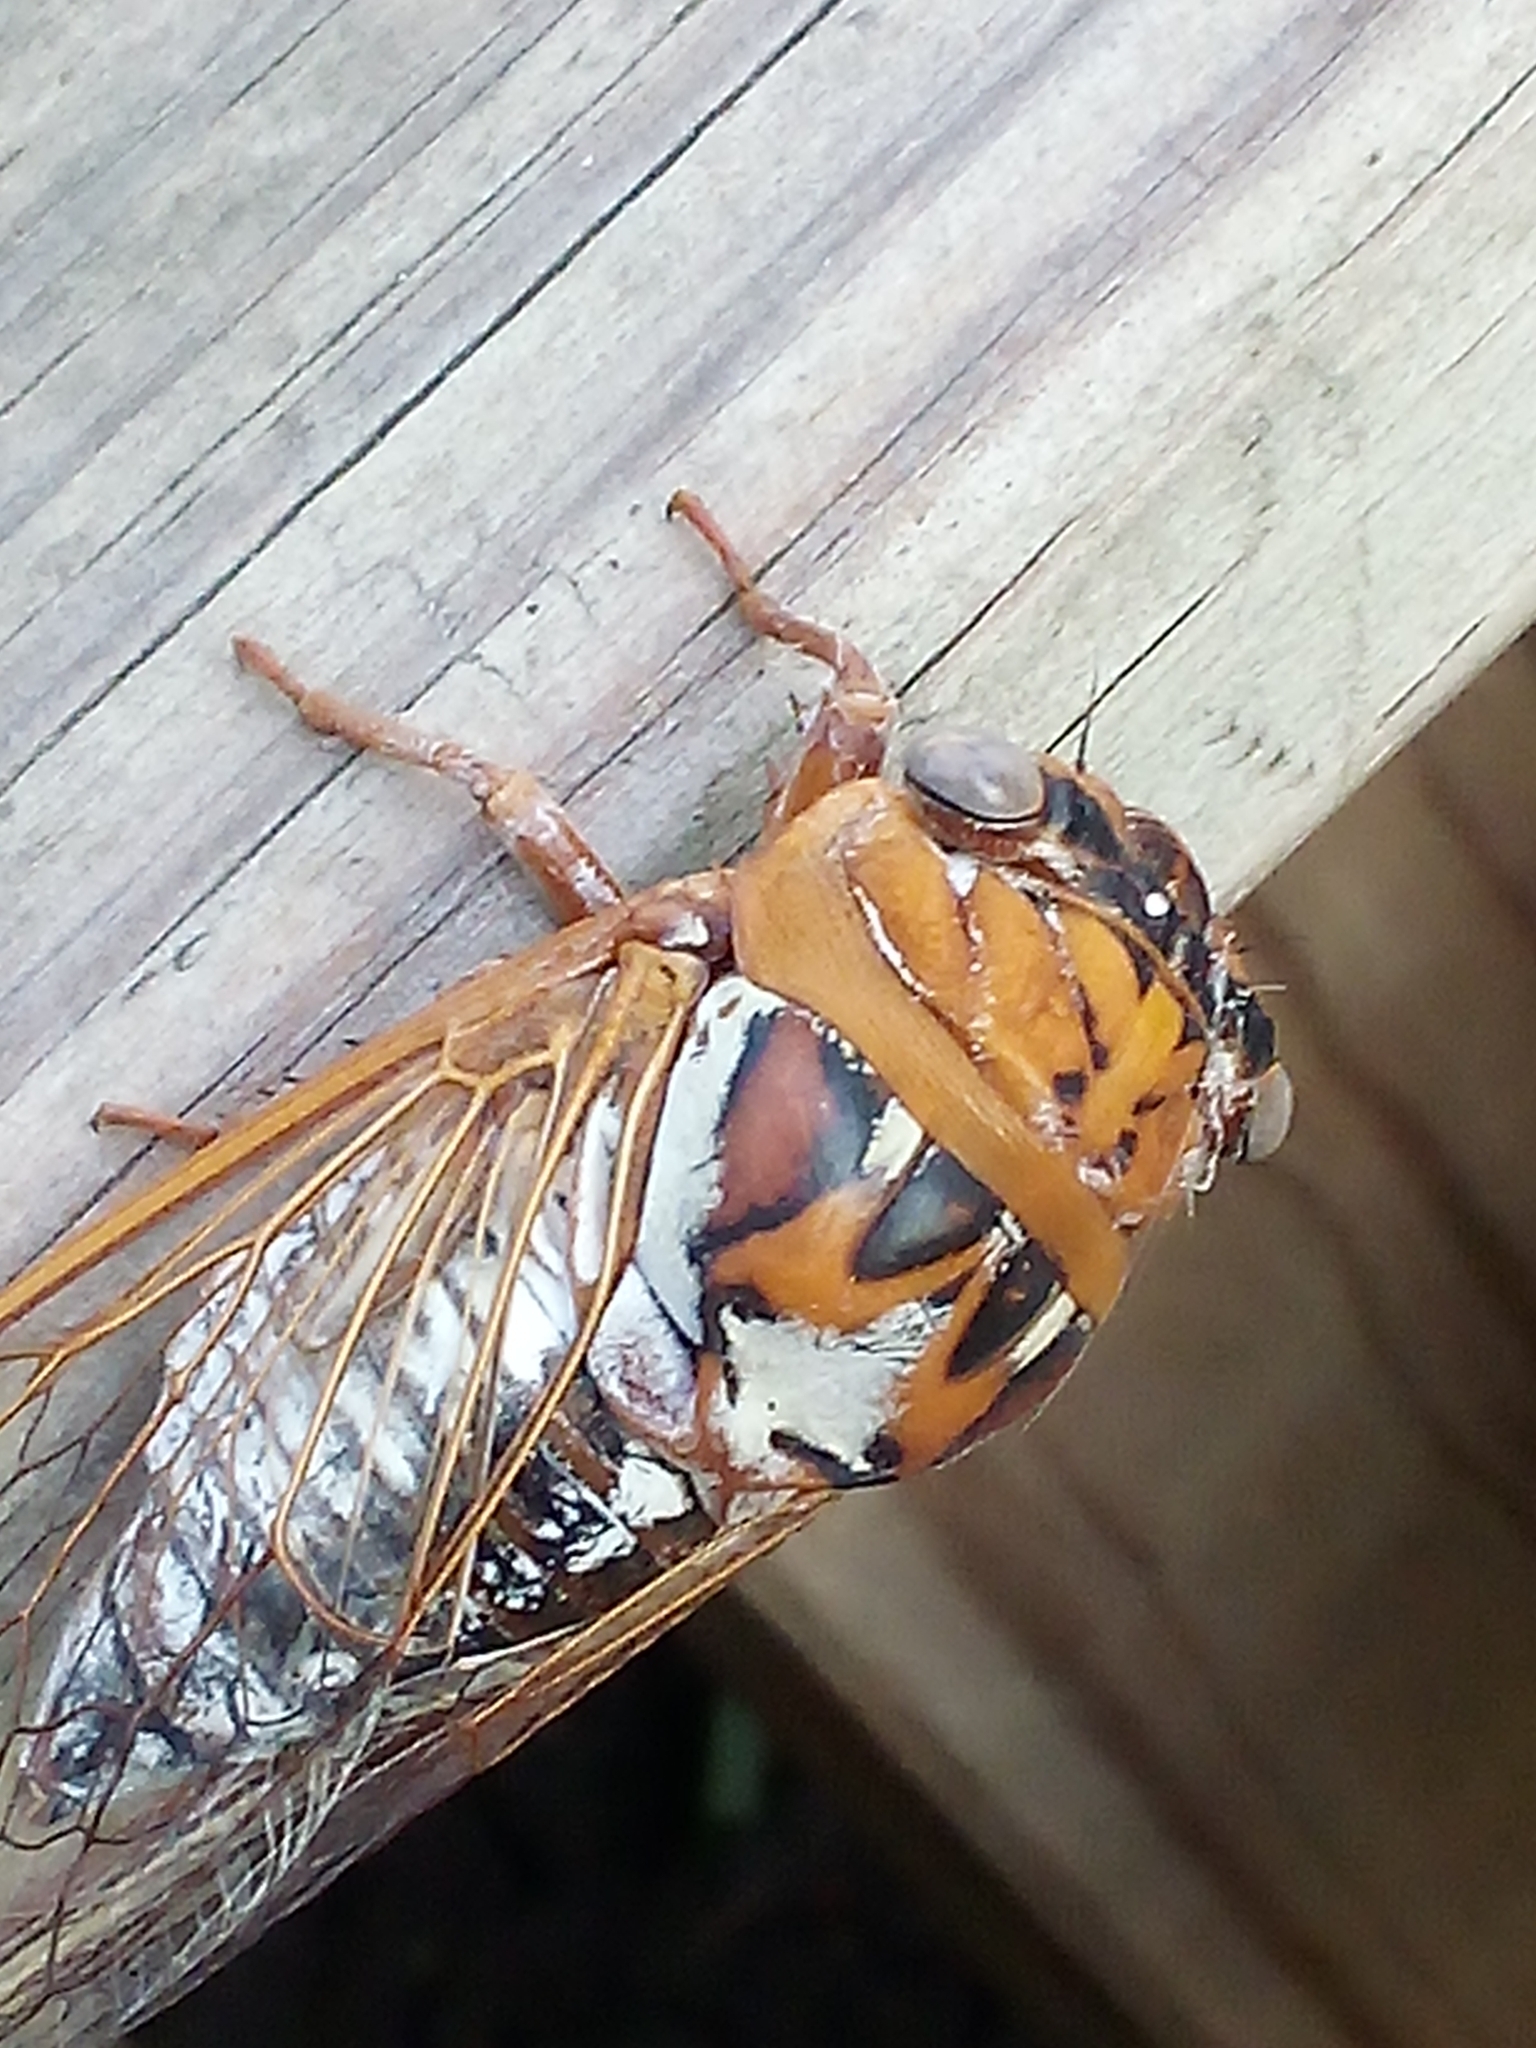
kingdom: Animalia
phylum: Arthropoda
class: Insecta
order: Hemiptera
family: Cicadidae
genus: Megatibicen
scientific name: Megatibicen dealbatus
